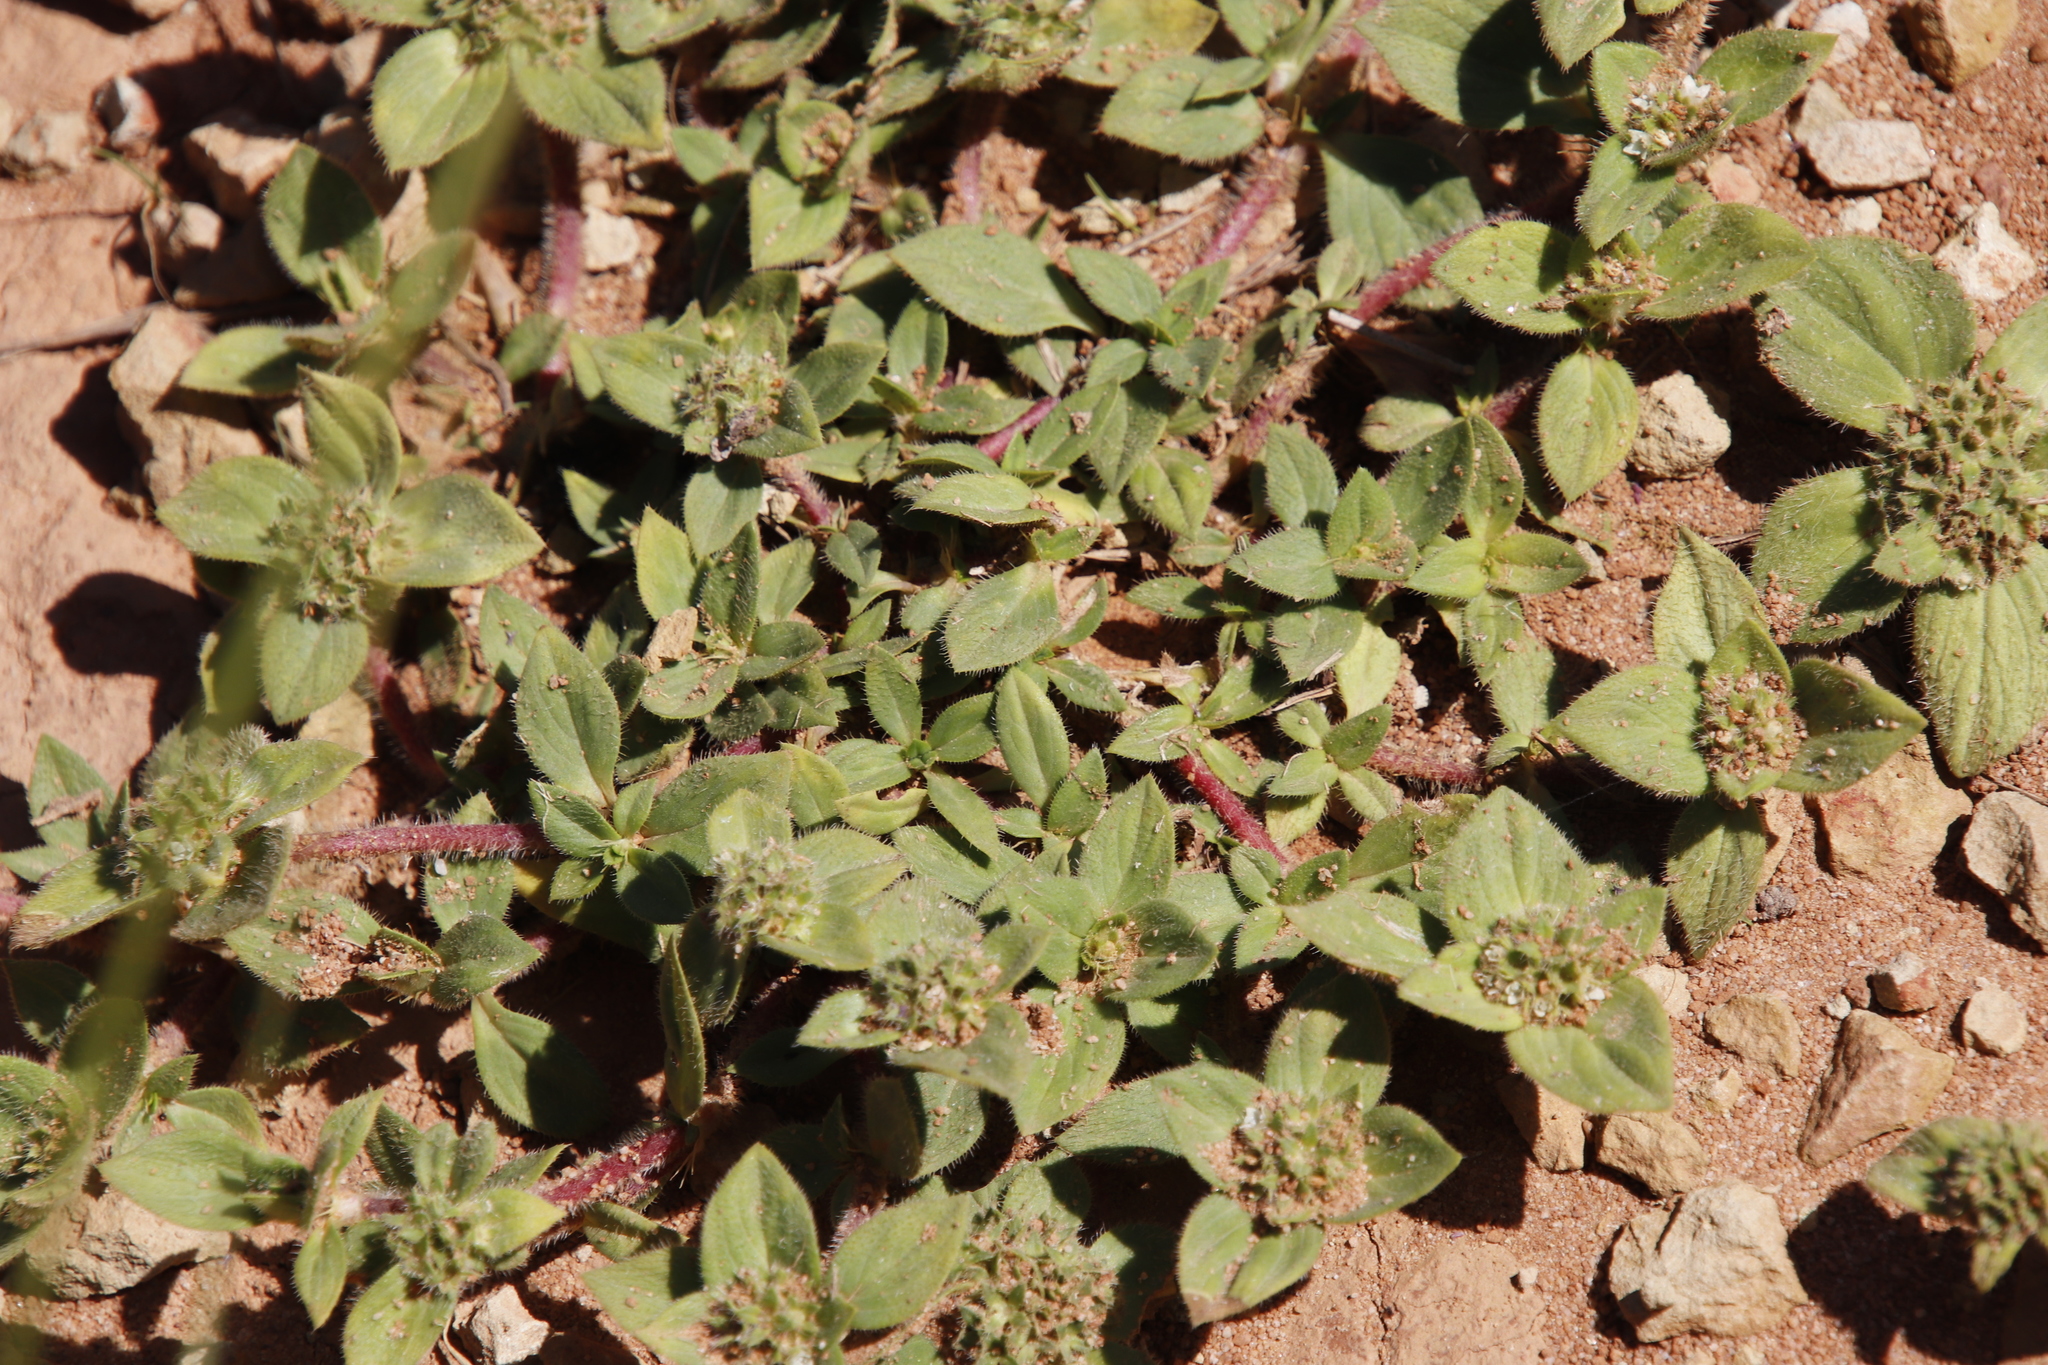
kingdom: Plantae
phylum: Tracheophyta
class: Magnoliopsida
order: Gentianales
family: Rubiaceae
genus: Richardia
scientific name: Richardia brasiliensis
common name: Tropical mexican clover
